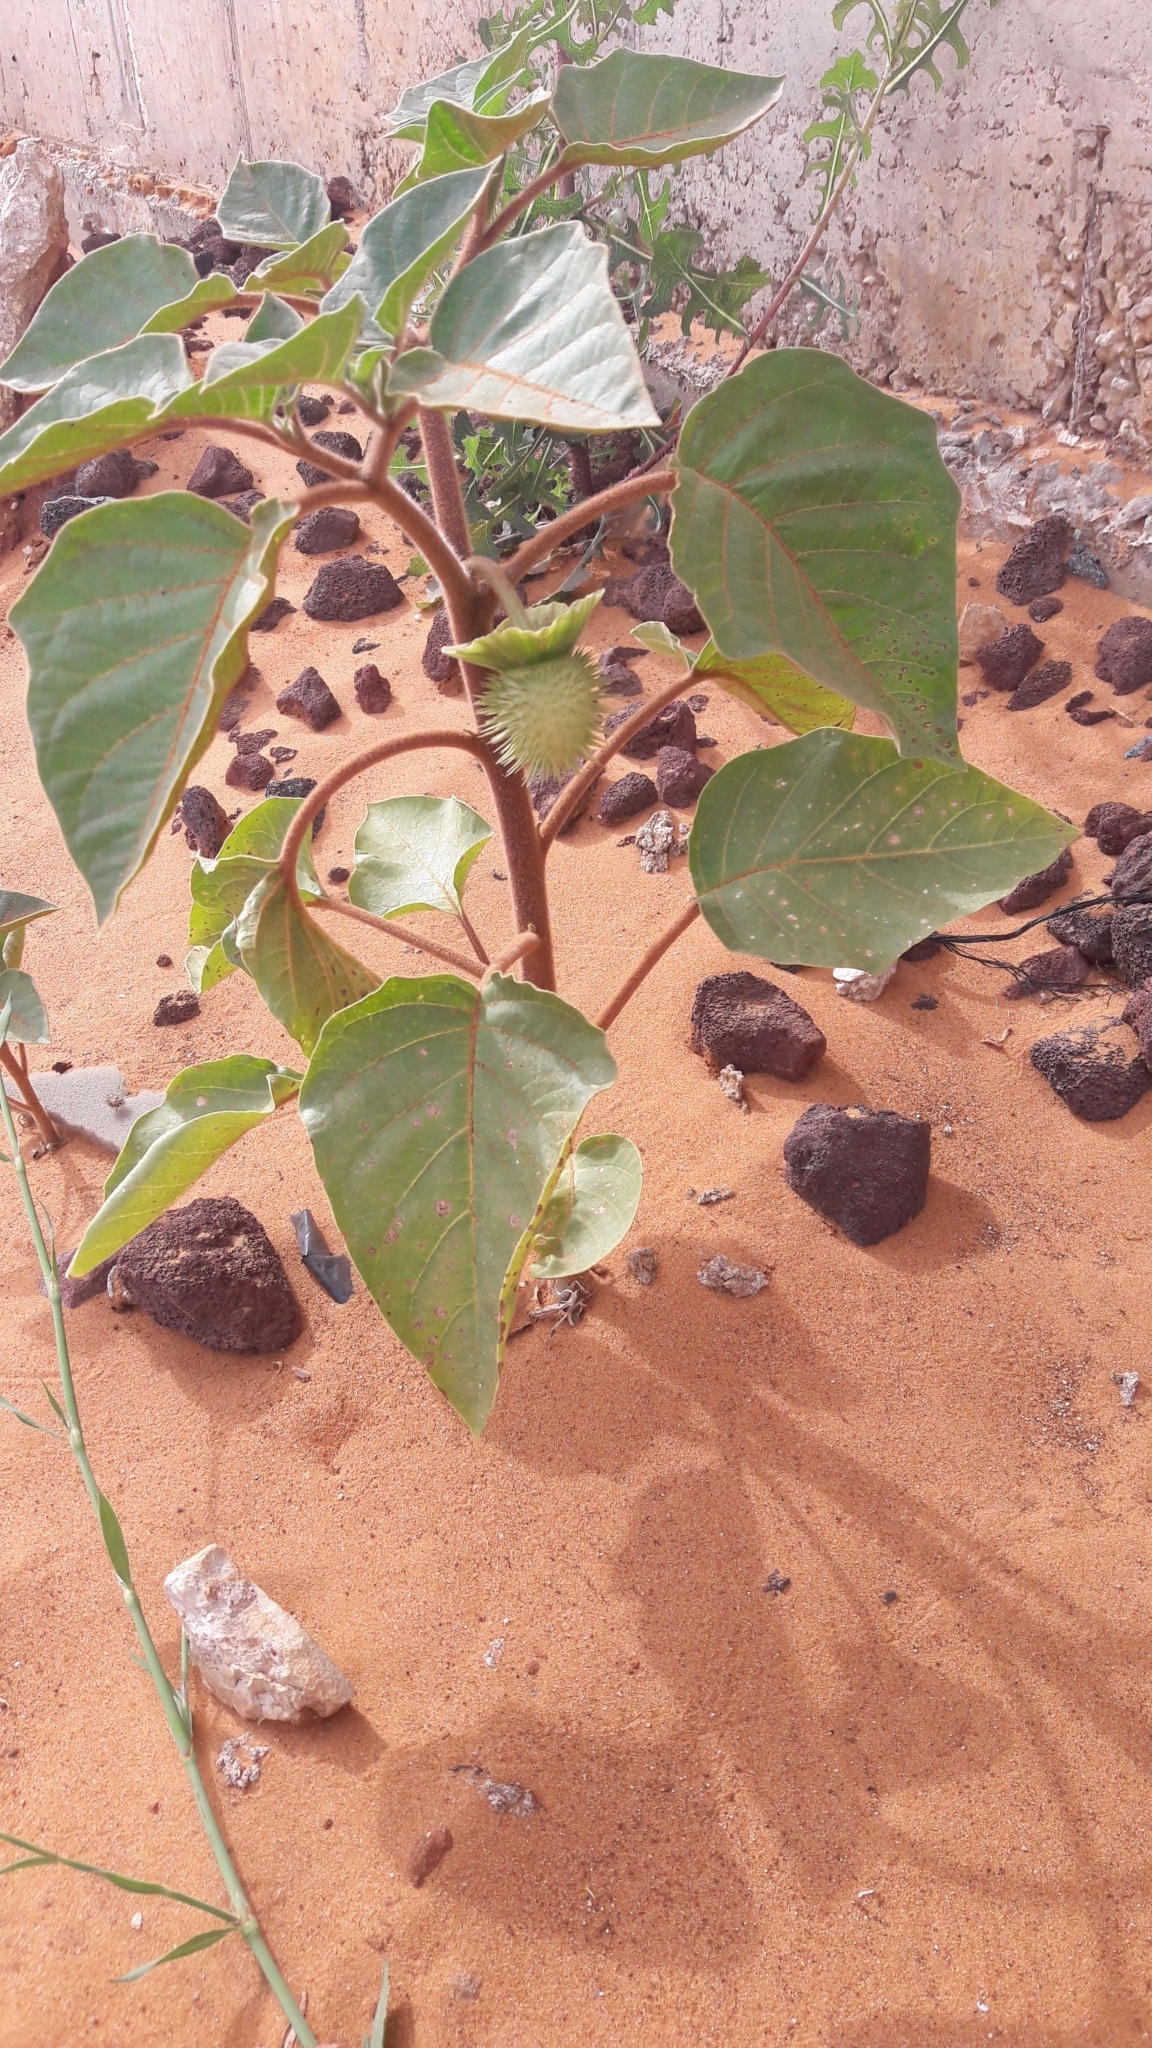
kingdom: Plantae
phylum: Tracheophyta
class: Magnoliopsida
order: Solanales
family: Solanaceae
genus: Datura
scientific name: Datura innoxia
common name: Downy thorn-apple
